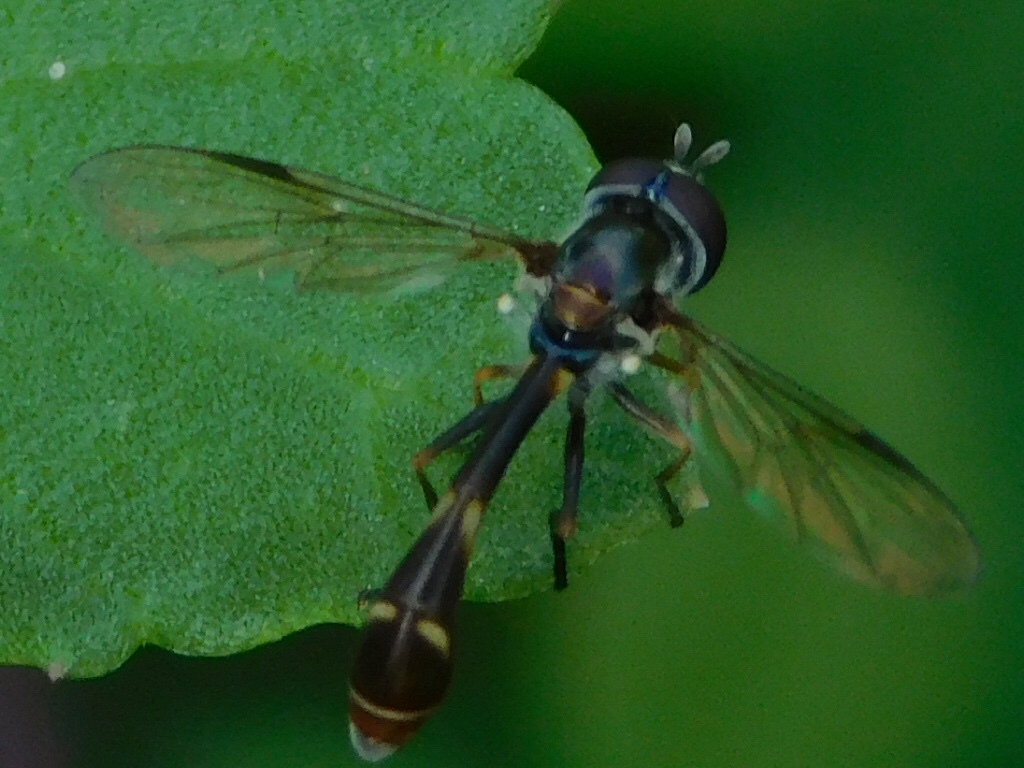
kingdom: Animalia
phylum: Arthropoda
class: Insecta
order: Diptera
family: Syrphidae
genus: Dioprosopa
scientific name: Dioprosopa clavatus
